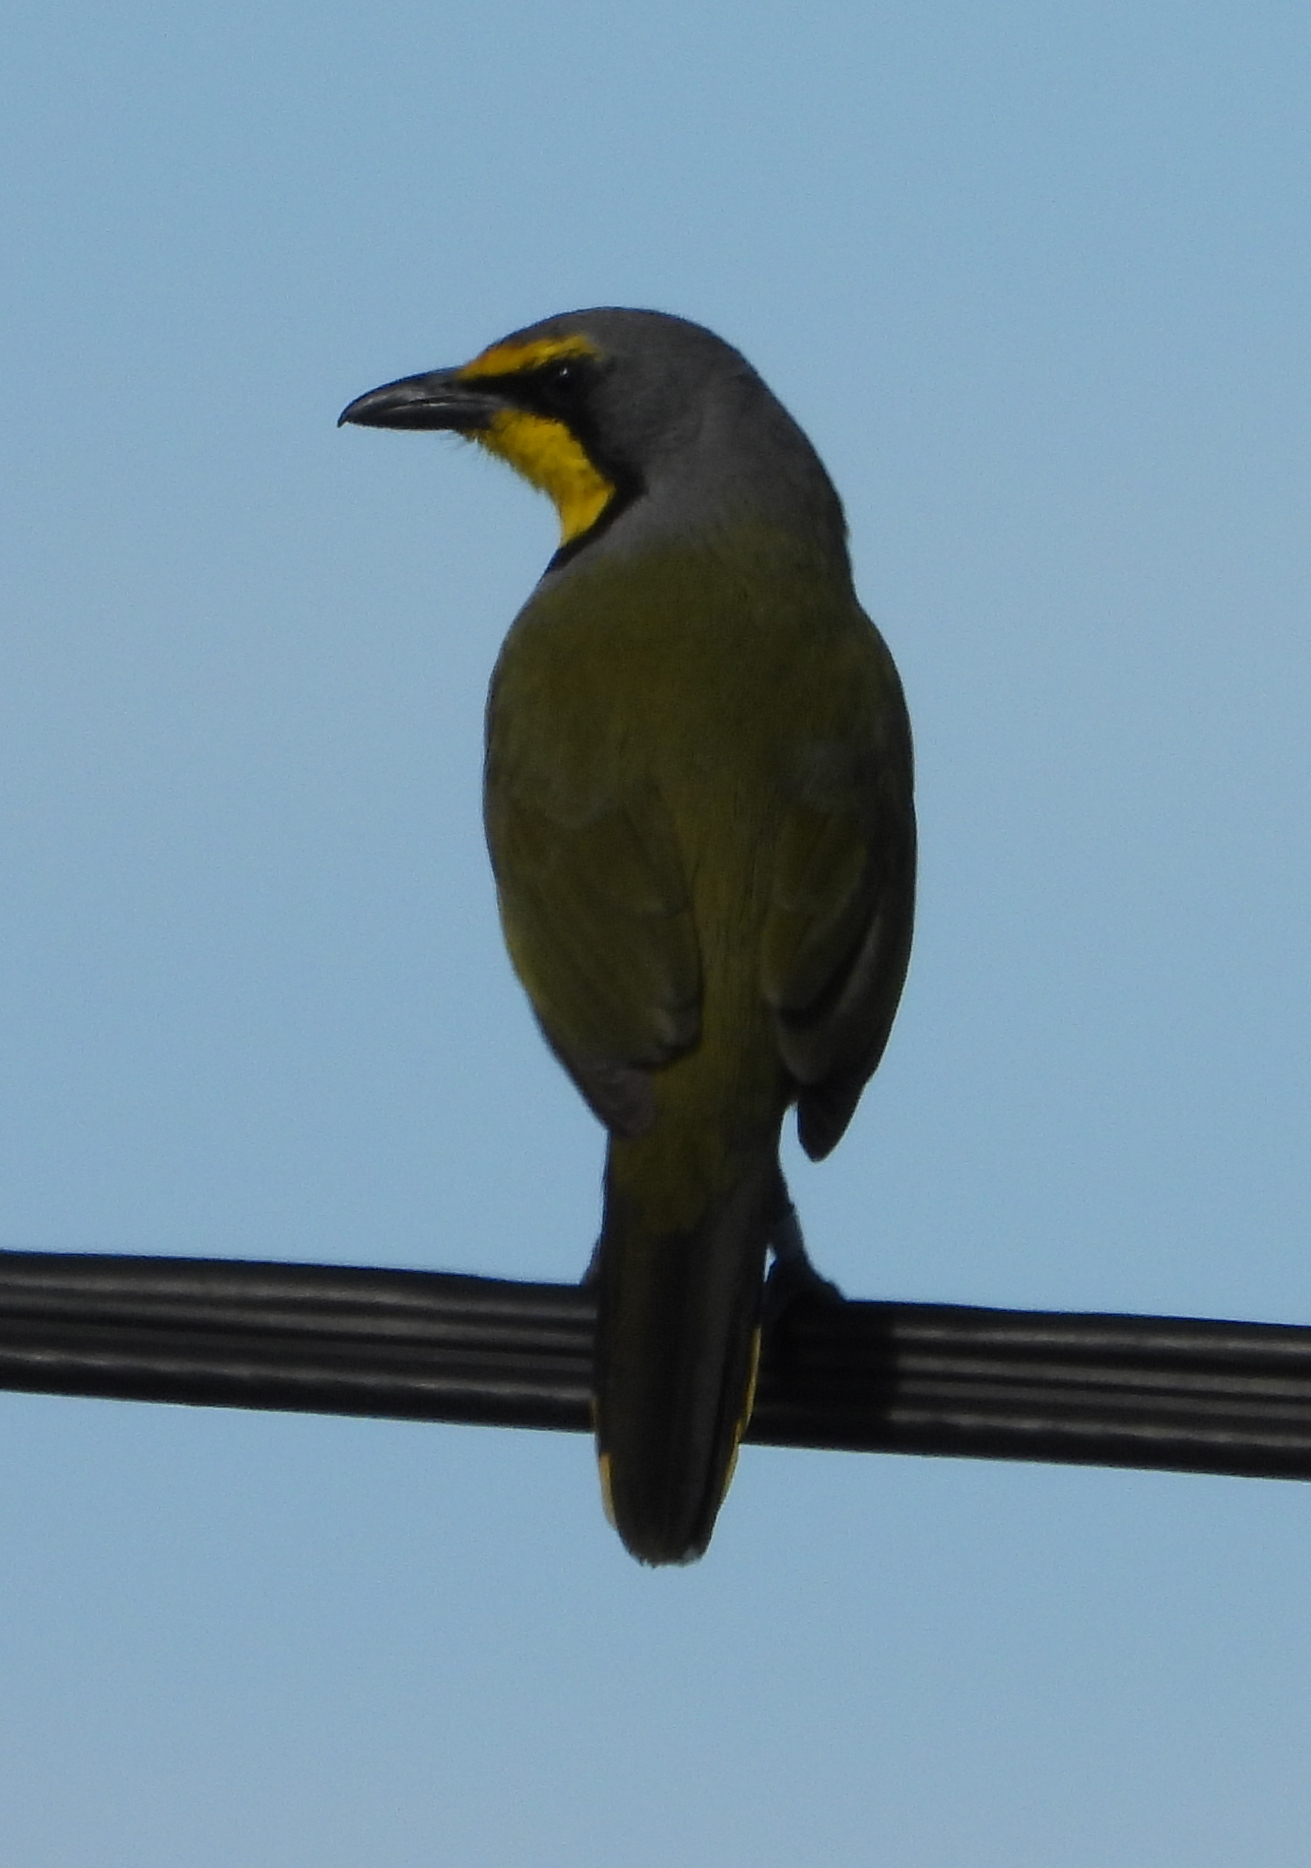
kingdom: Animalia
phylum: Chordata
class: Aves
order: Passeriformes
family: Malaconotidae
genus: Telophorus
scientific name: Telophorus zeylonus
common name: Bokmakierie
